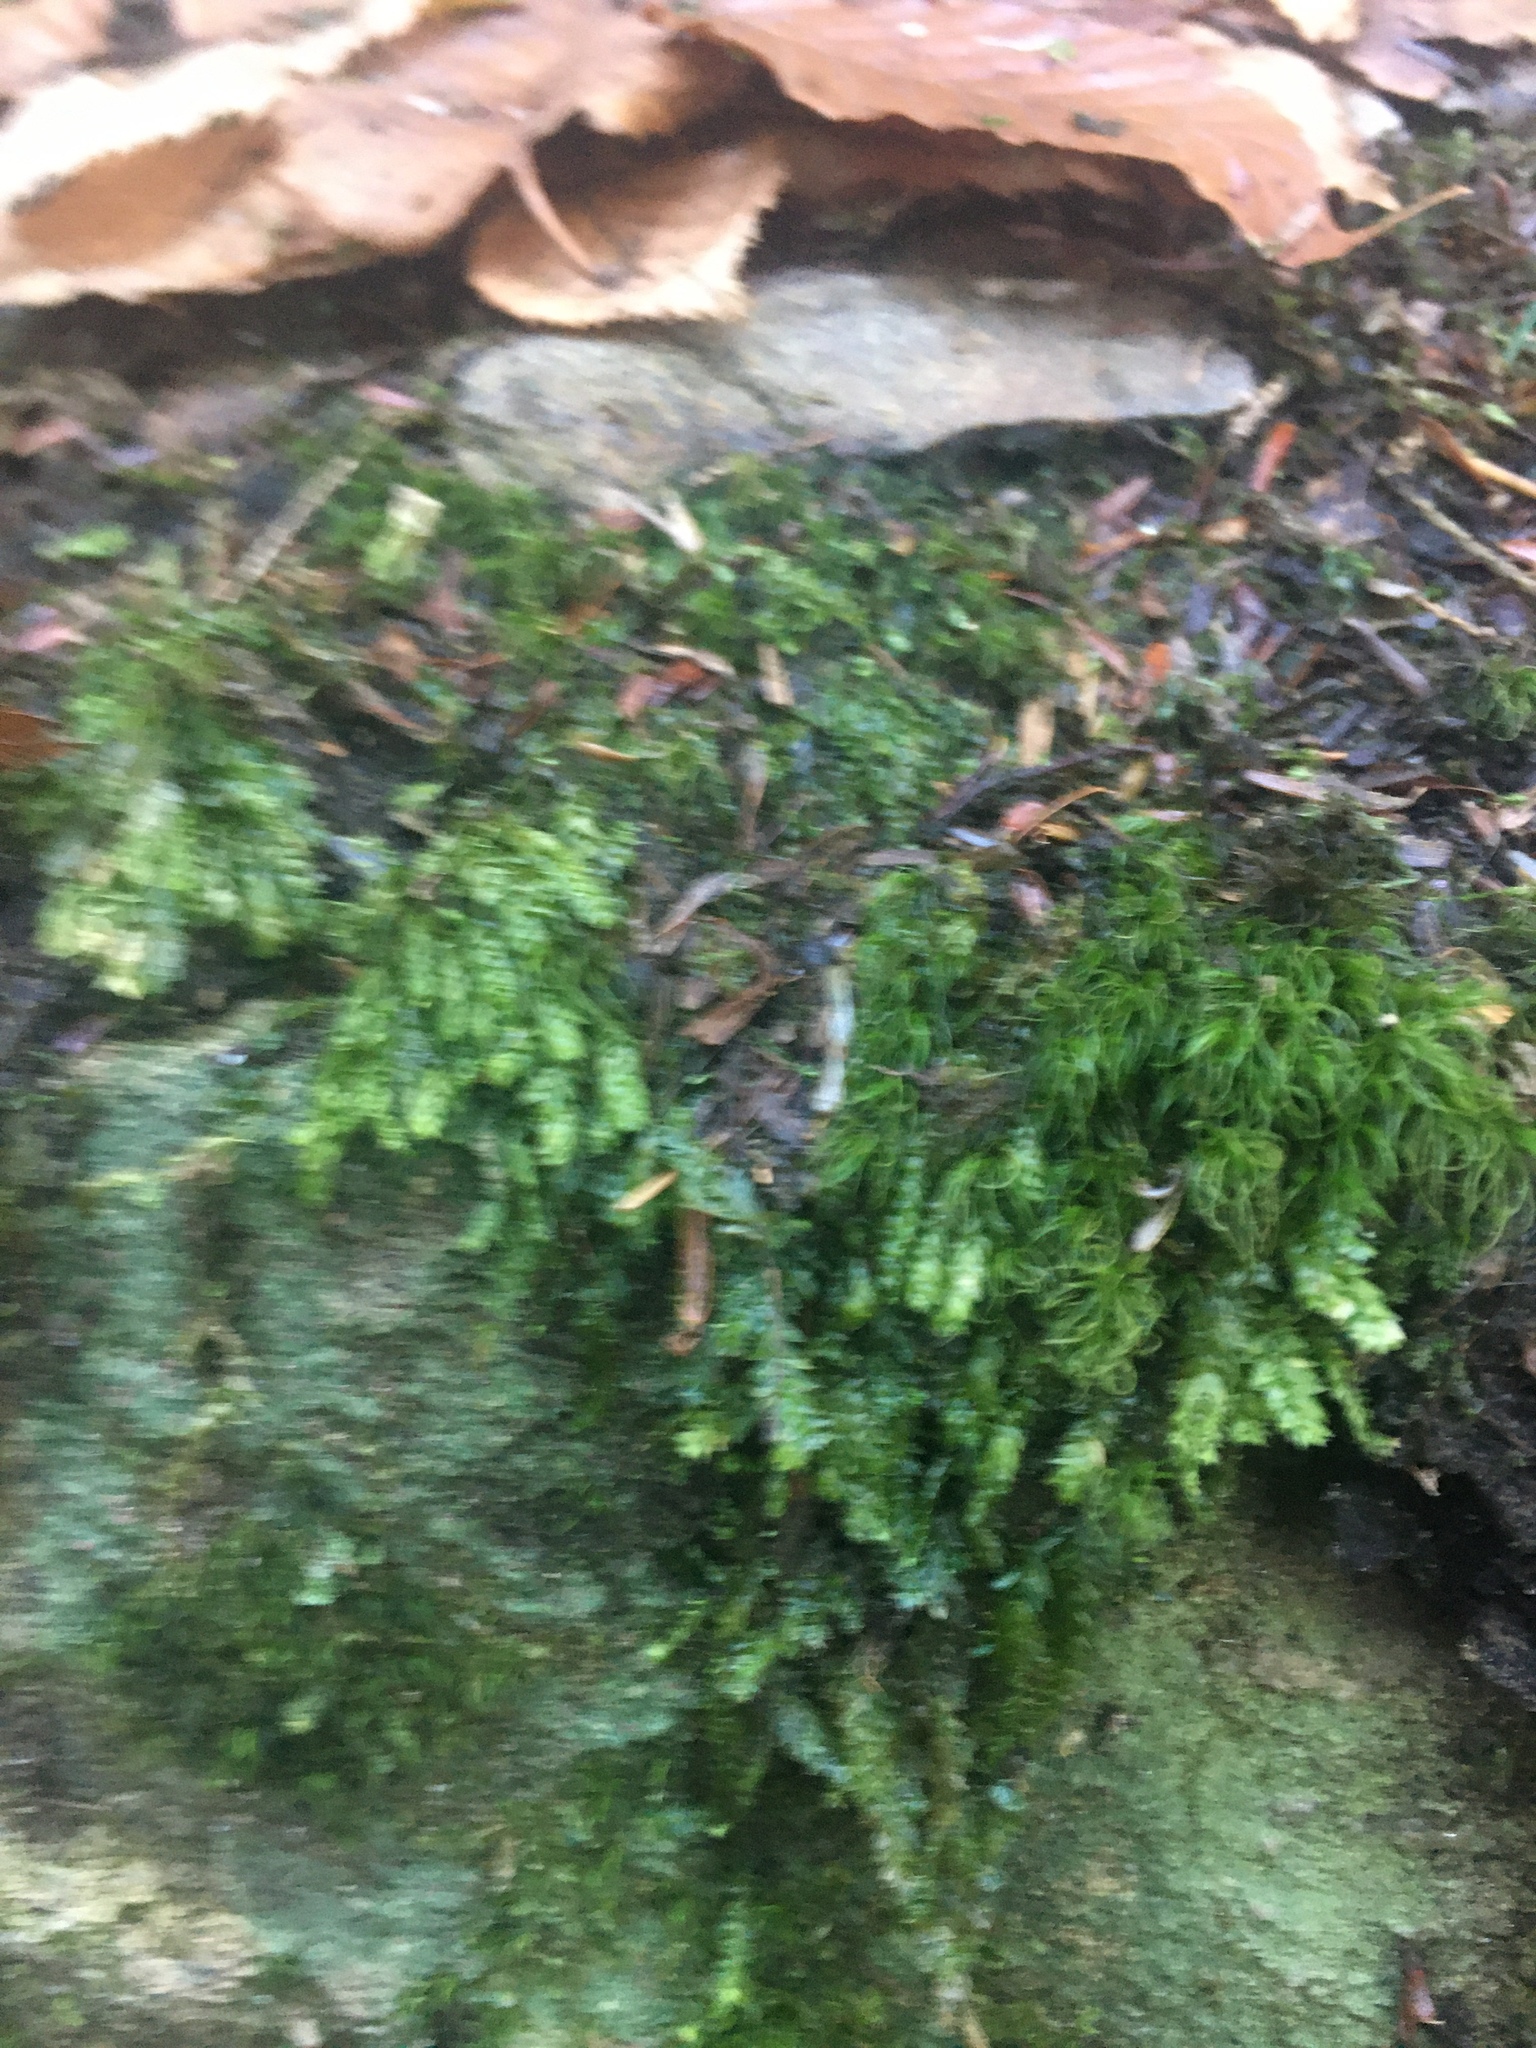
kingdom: Plantae
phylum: Bryophyta
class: Bryopsida
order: Hypnales
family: Entodontaceae
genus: Entodon
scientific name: Entodon cladorrhizans
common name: Flat-stemmed entodon moss
